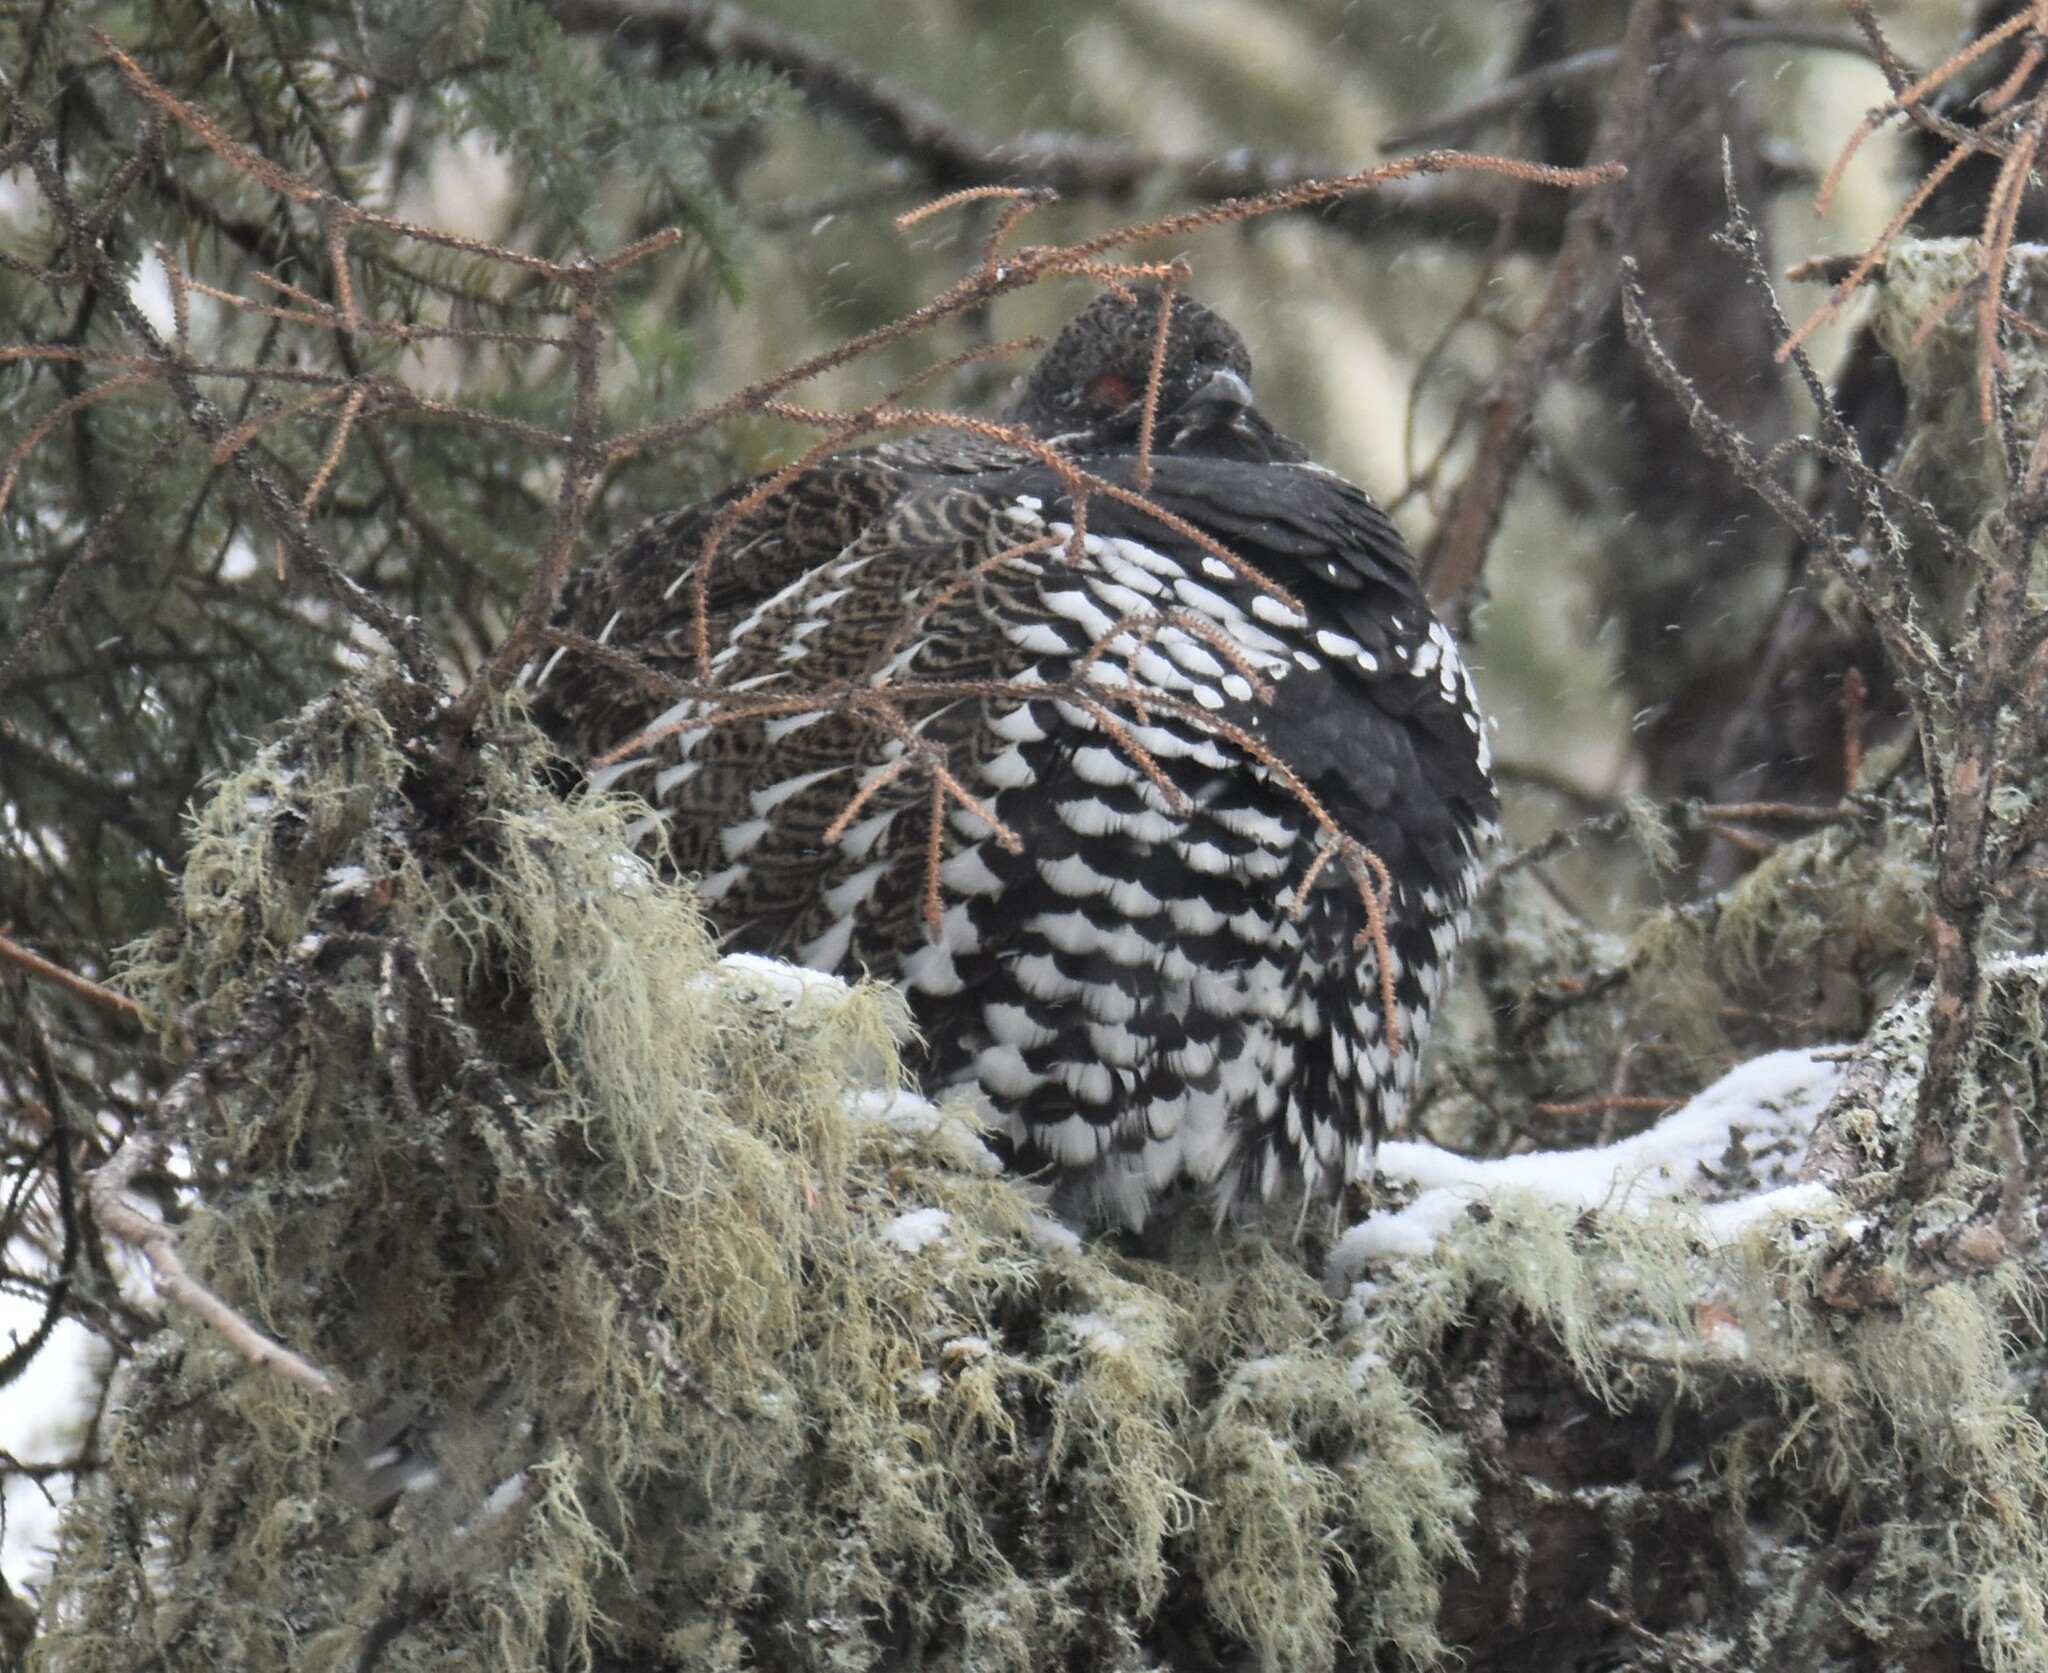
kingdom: Animalia
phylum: Chordata
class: Aves
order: Galliformes
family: Phasianidae
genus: Canachites
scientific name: Canachites canadensis
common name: Spruce grouse
